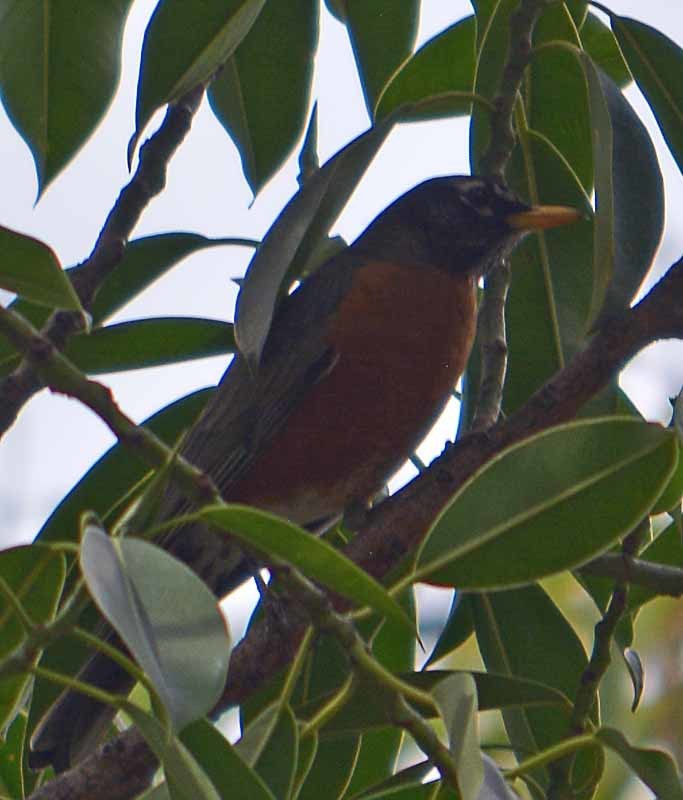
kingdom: Animalia
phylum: Chordata
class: Aves
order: Passeriformes
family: Turdidae
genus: Turdus
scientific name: Turdus migratorius
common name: American robin
